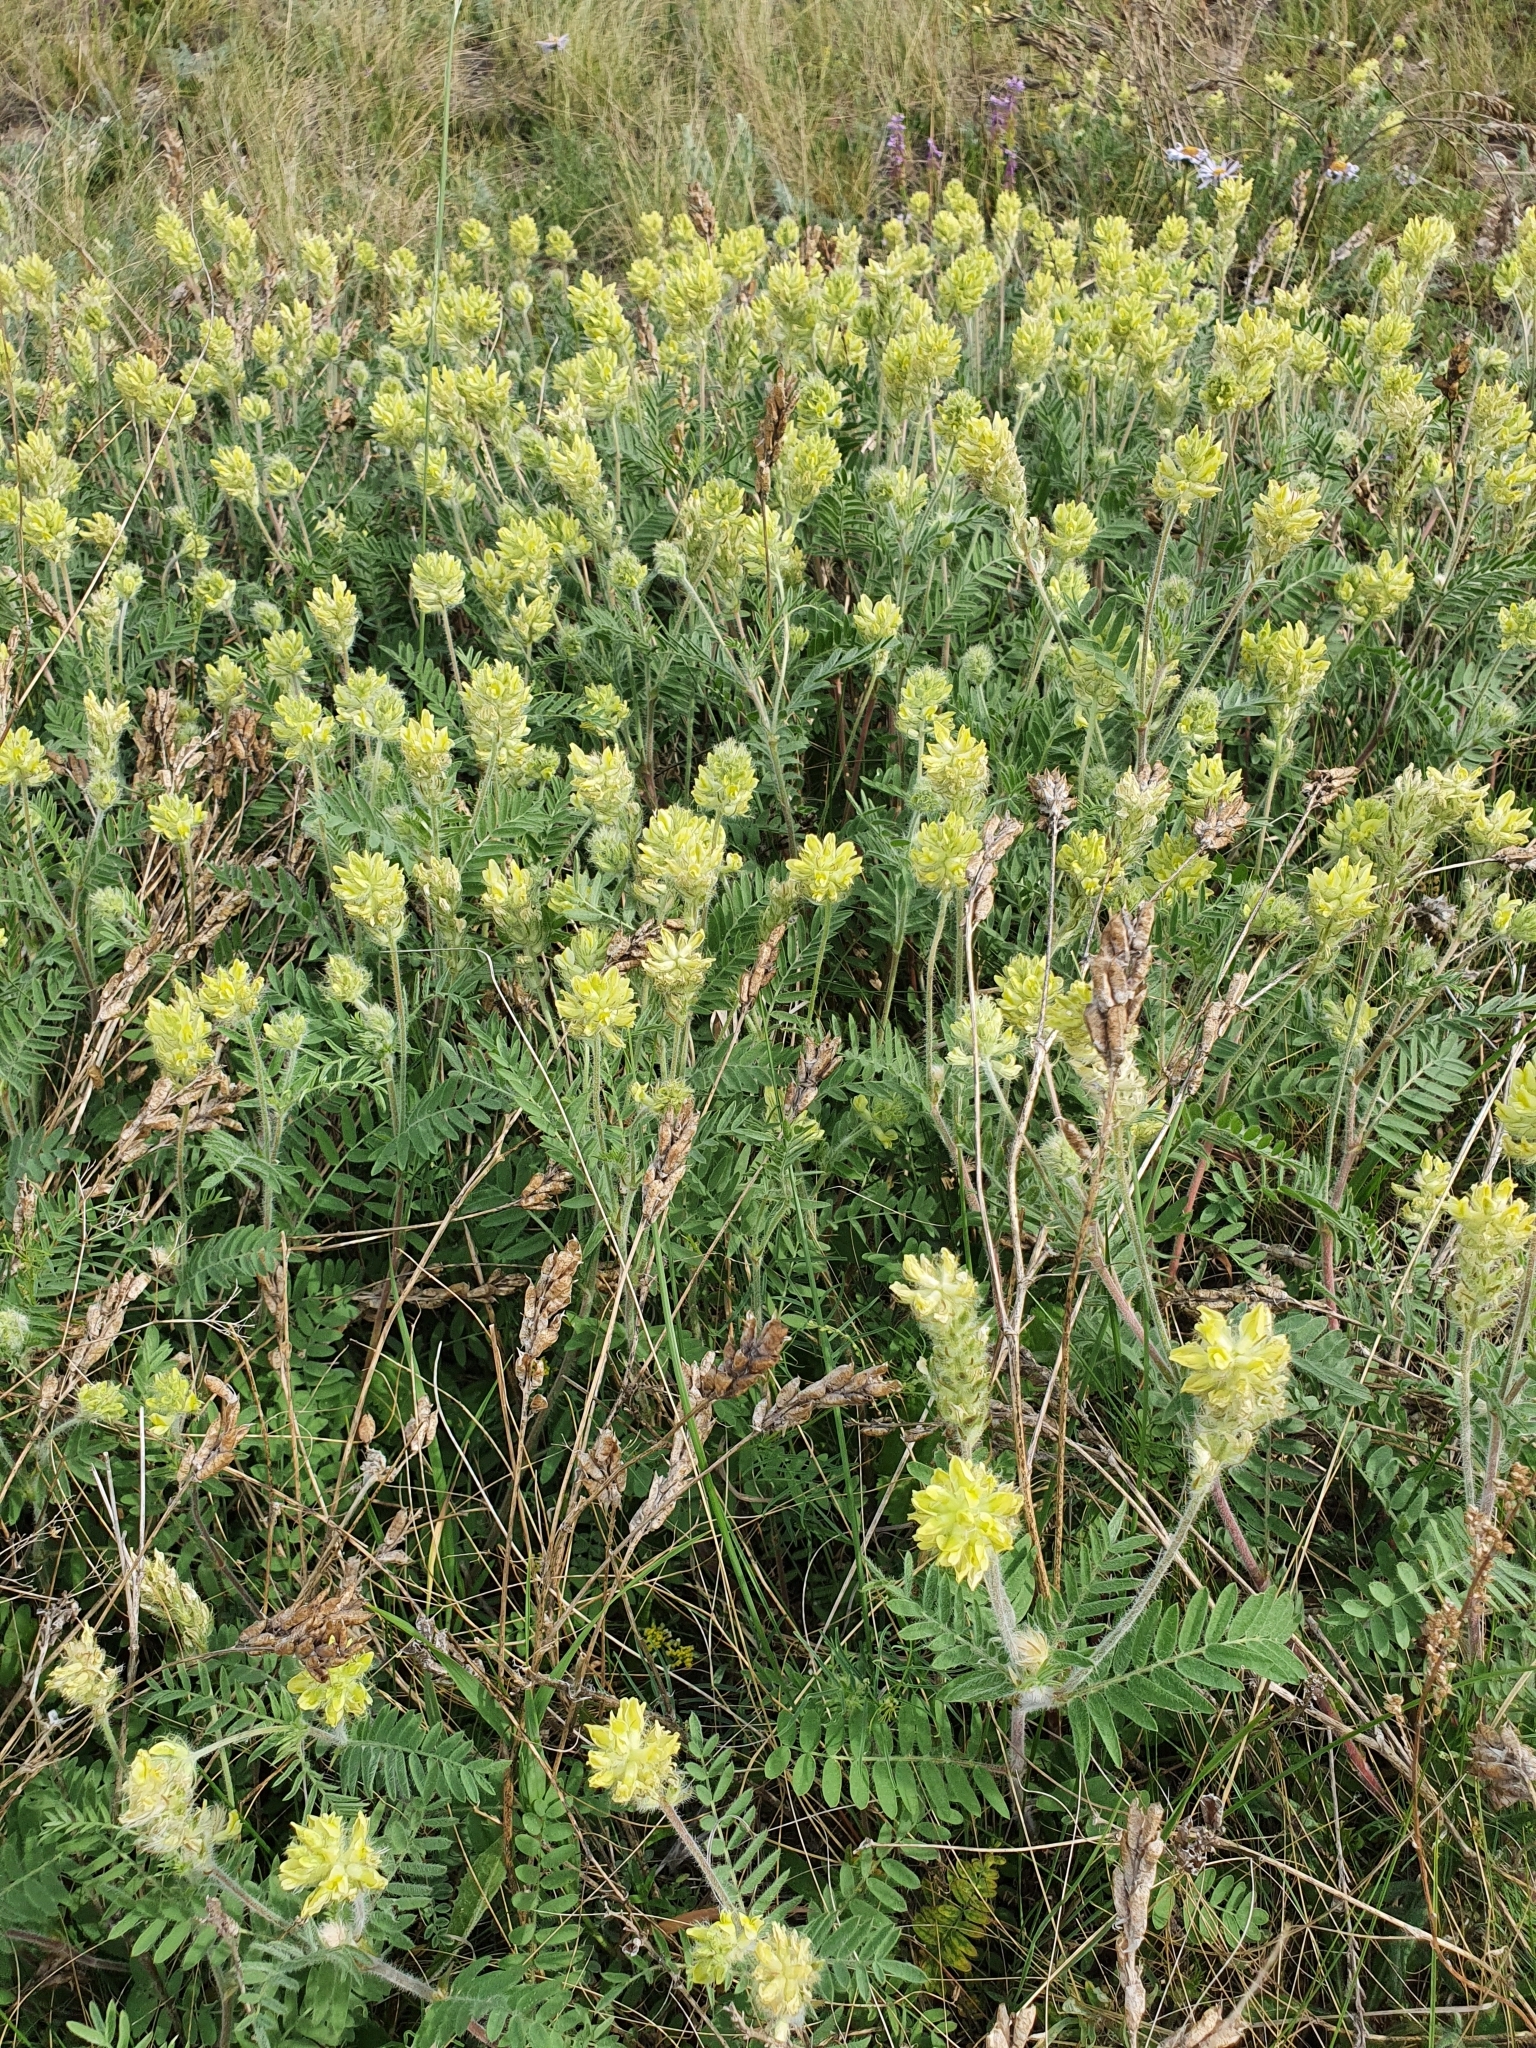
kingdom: Plantae
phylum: Tracheophyta
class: Magnoliopsida
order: Fabales
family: Fabaceae
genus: Oxytropis
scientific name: Oxytropis pilosa
